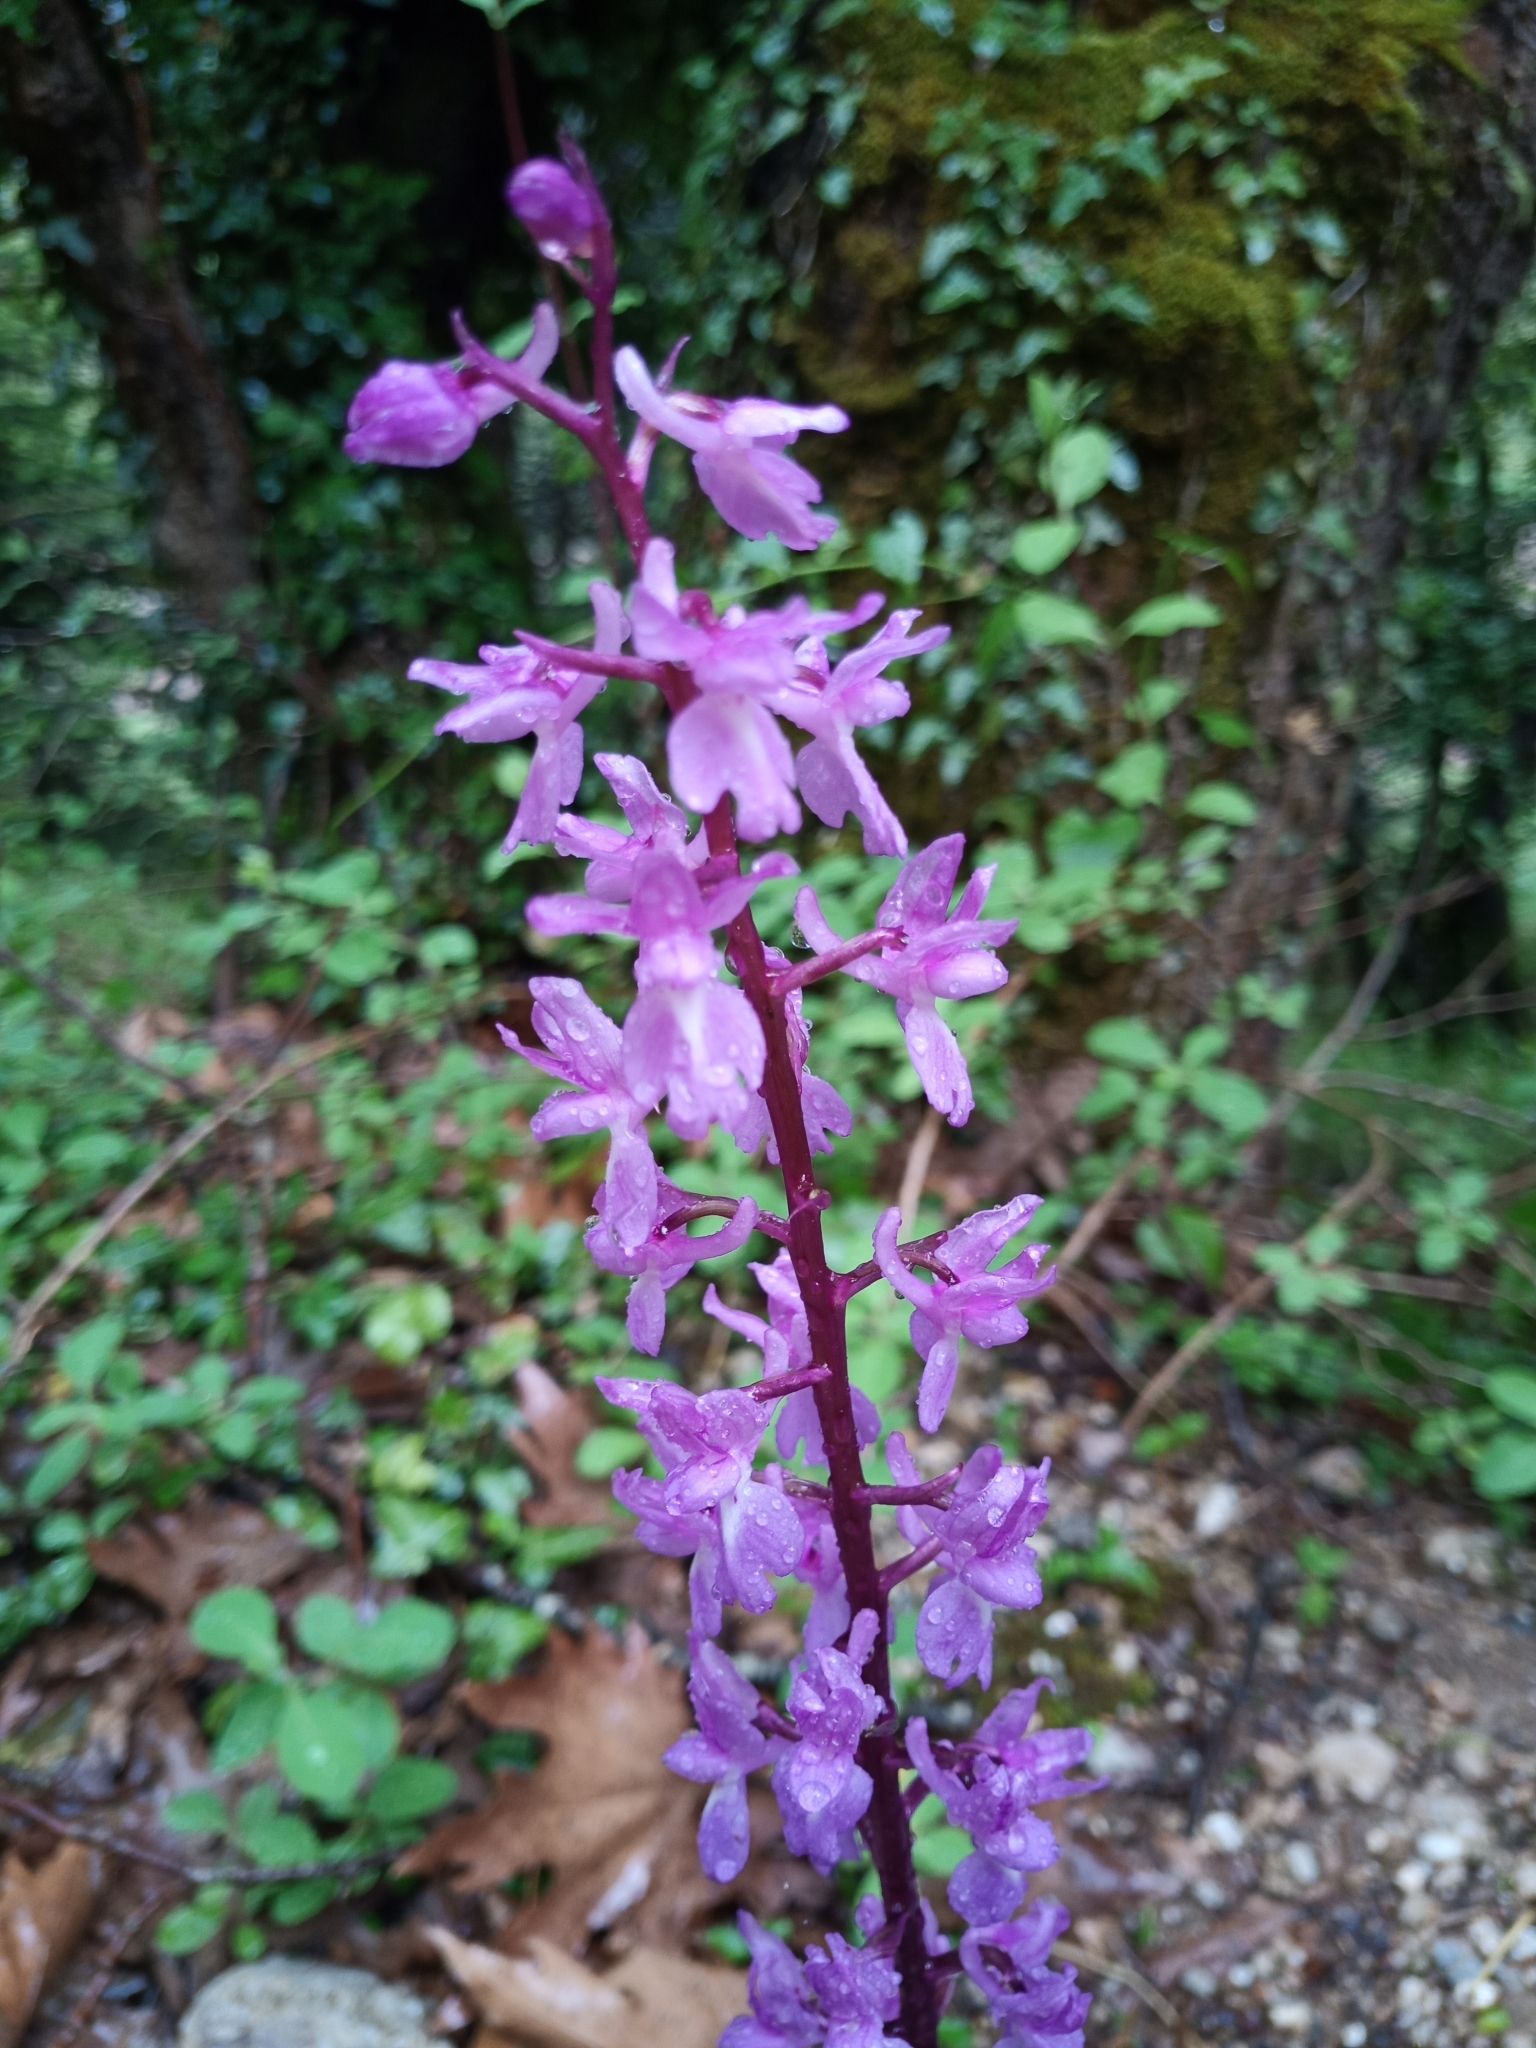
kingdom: Plantae
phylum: Tracheophyta
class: Liliopsida
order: Asparagales
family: Orchidaceae
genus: Orchis
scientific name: Orchis mascula
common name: Early-purple orchid
